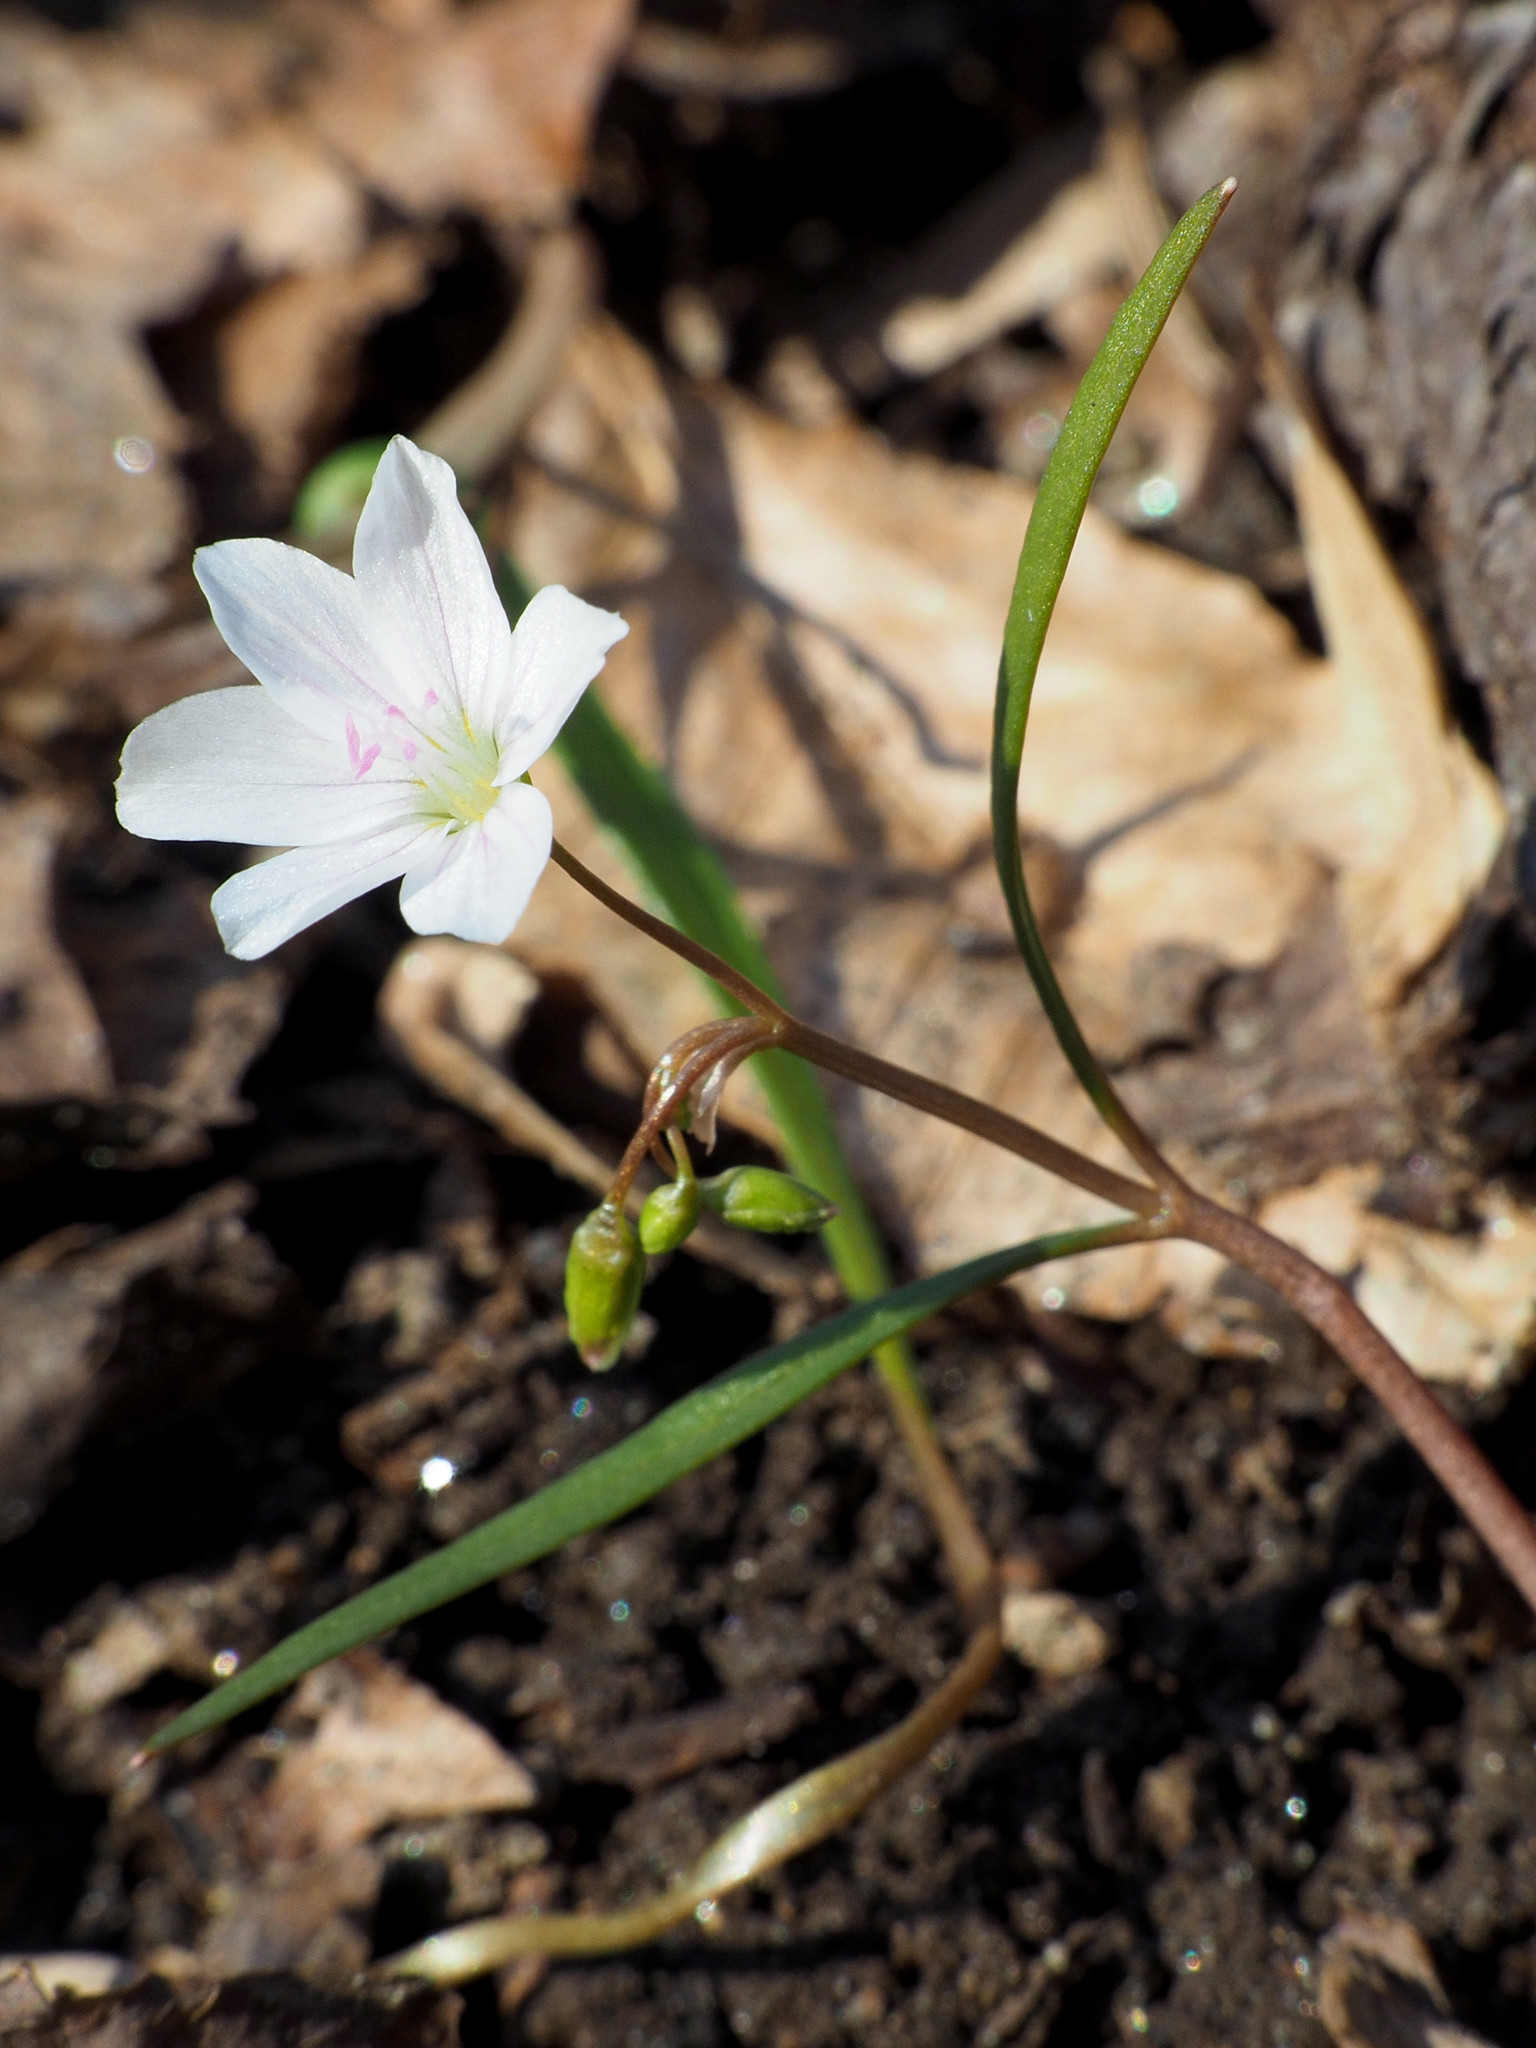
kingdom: Plantae
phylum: Tracheophyta
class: Magnoliopsida
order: Caryophyllales
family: Montiaceae
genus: Claytonia
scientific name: Claytonia virginica
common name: Virginia springbeauty
